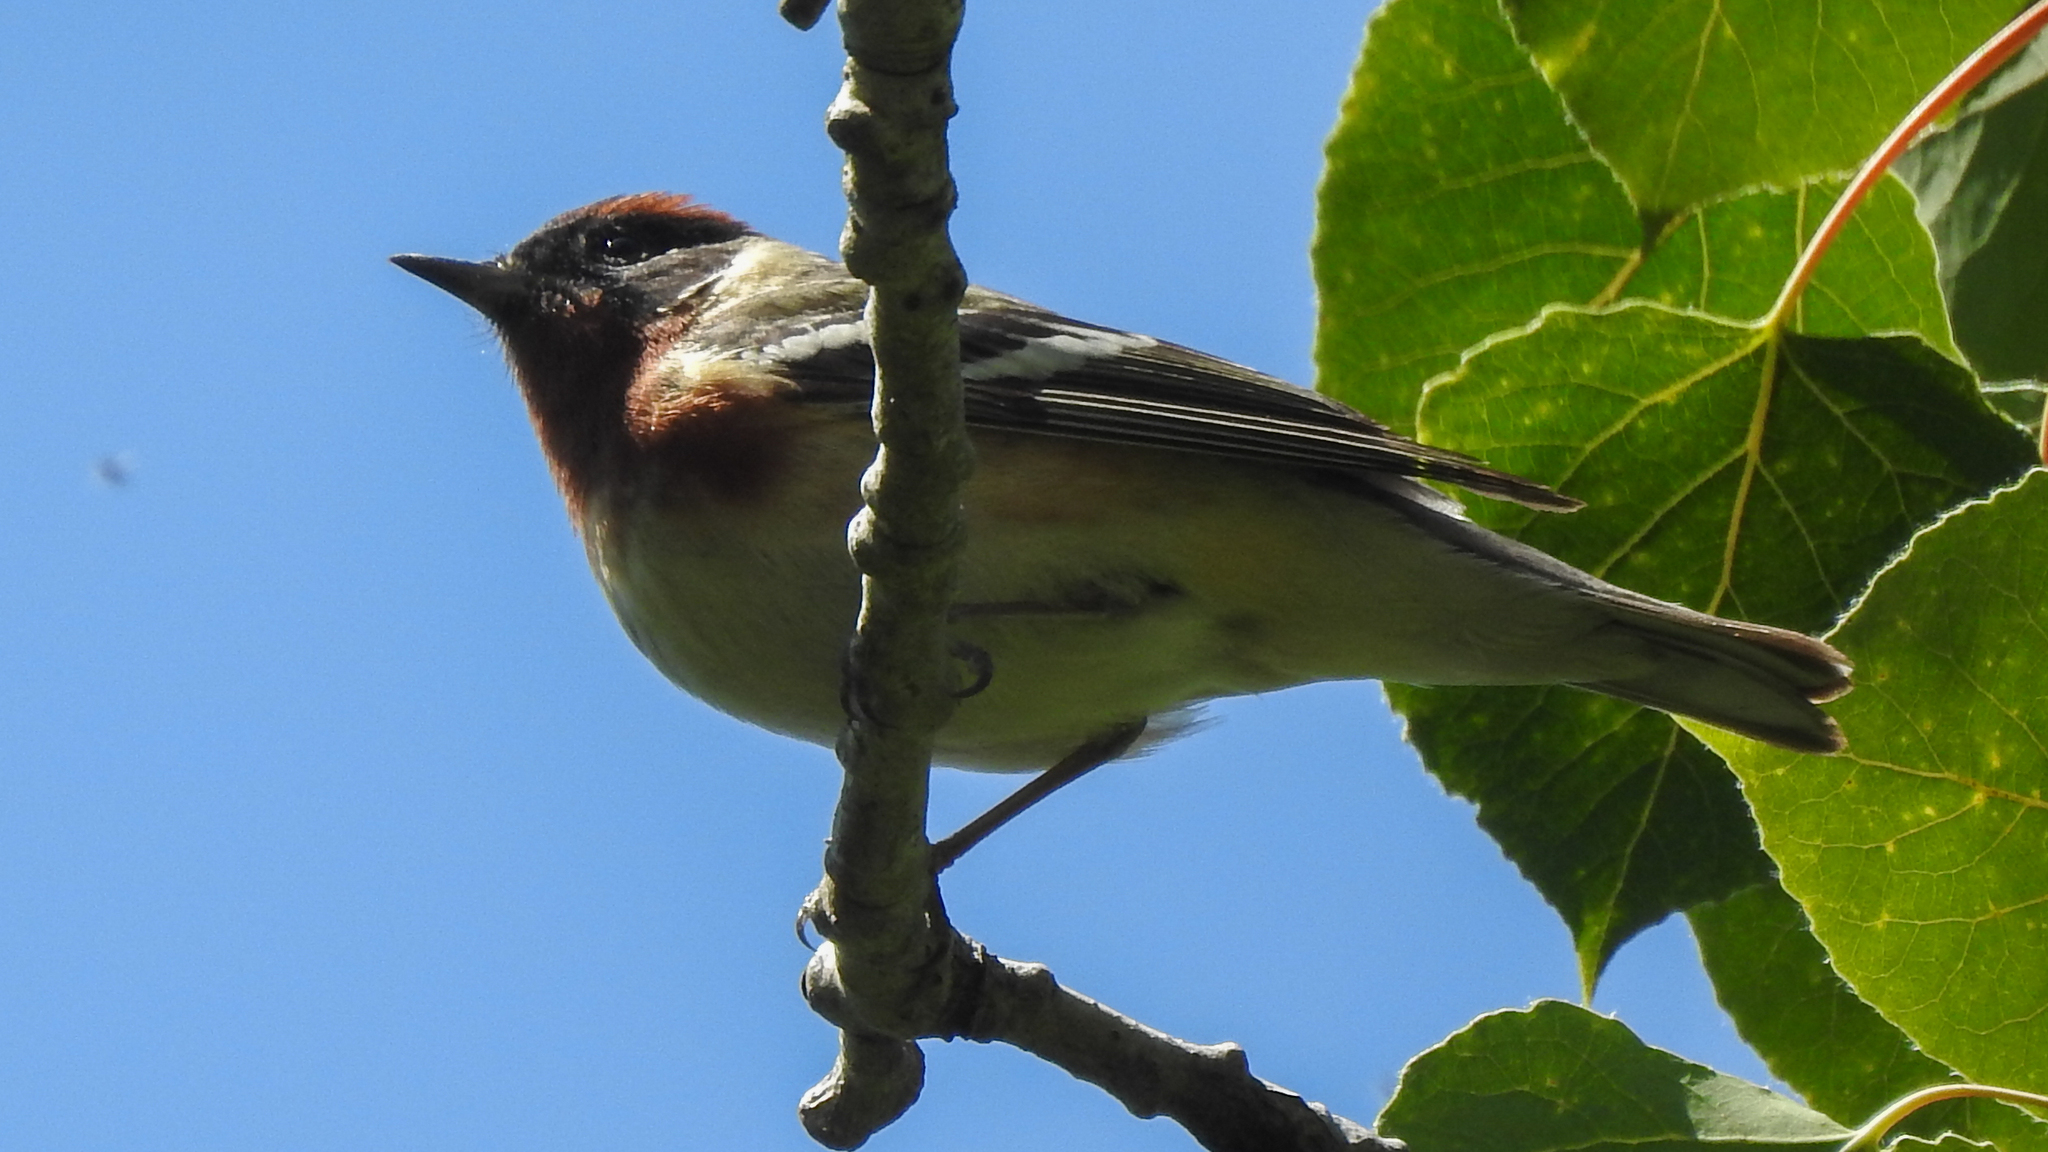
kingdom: Animalia
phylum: Chordata
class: Aves
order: Passeriformes
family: Parulidae
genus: Setophaga
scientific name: Setophaga castanea
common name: Bay-breasted warbler
